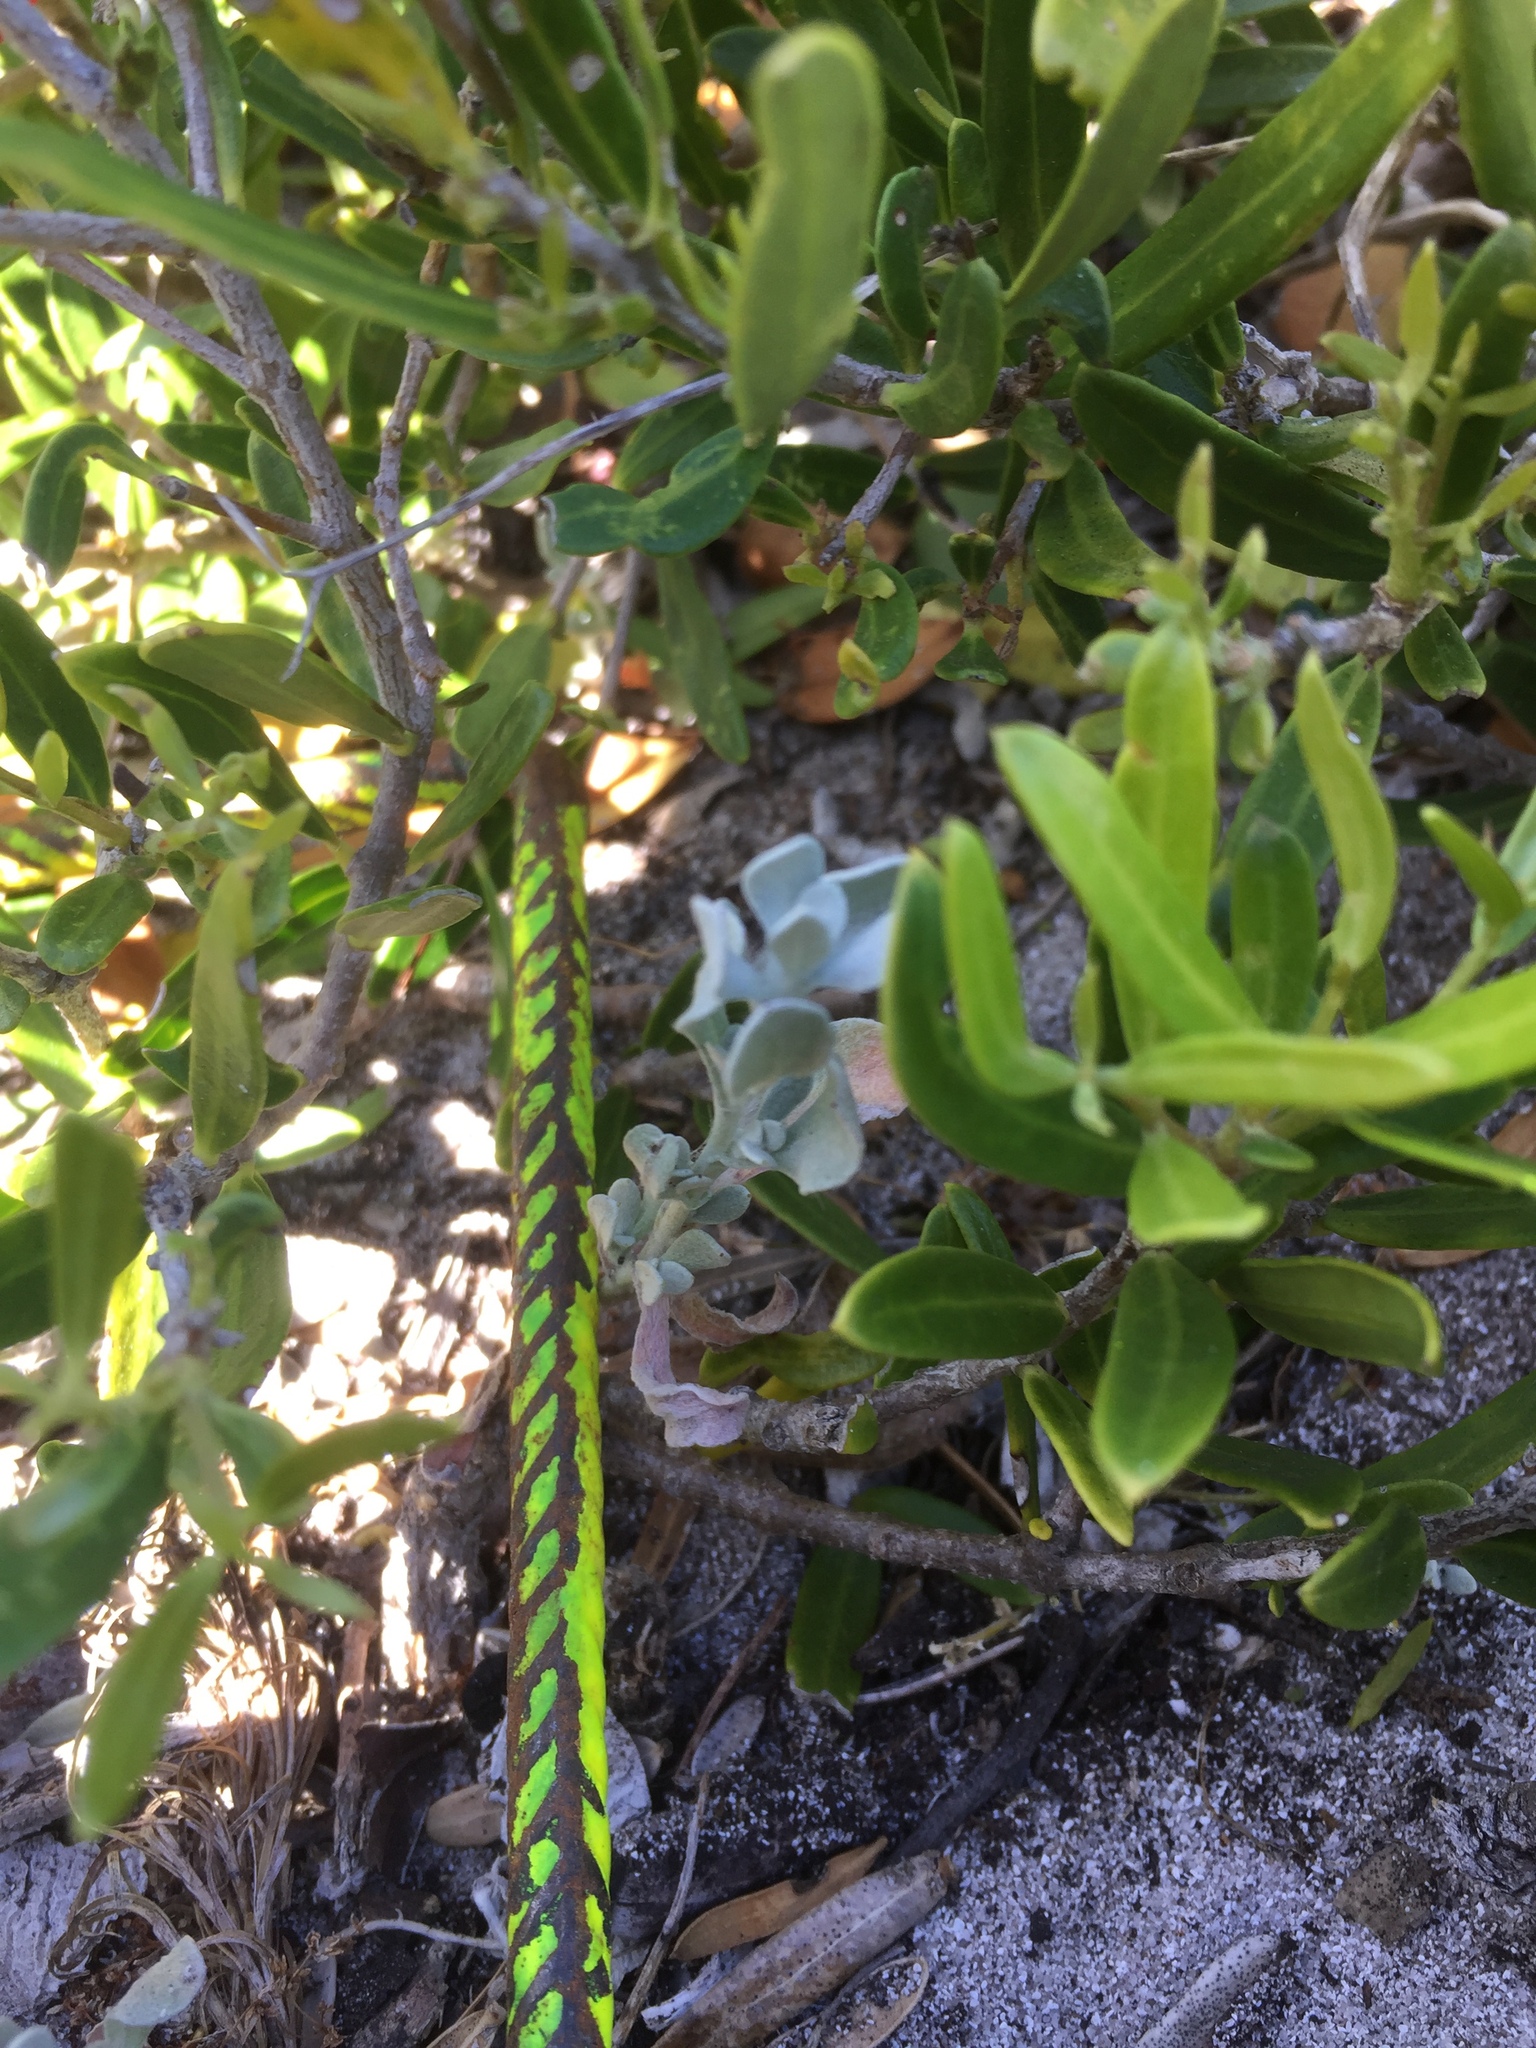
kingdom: Plantae
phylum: Tracheophyta
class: Magnoliopsida
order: Asterales
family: Asteraceae
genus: Helichrysum
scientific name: Helichrysum crispum
